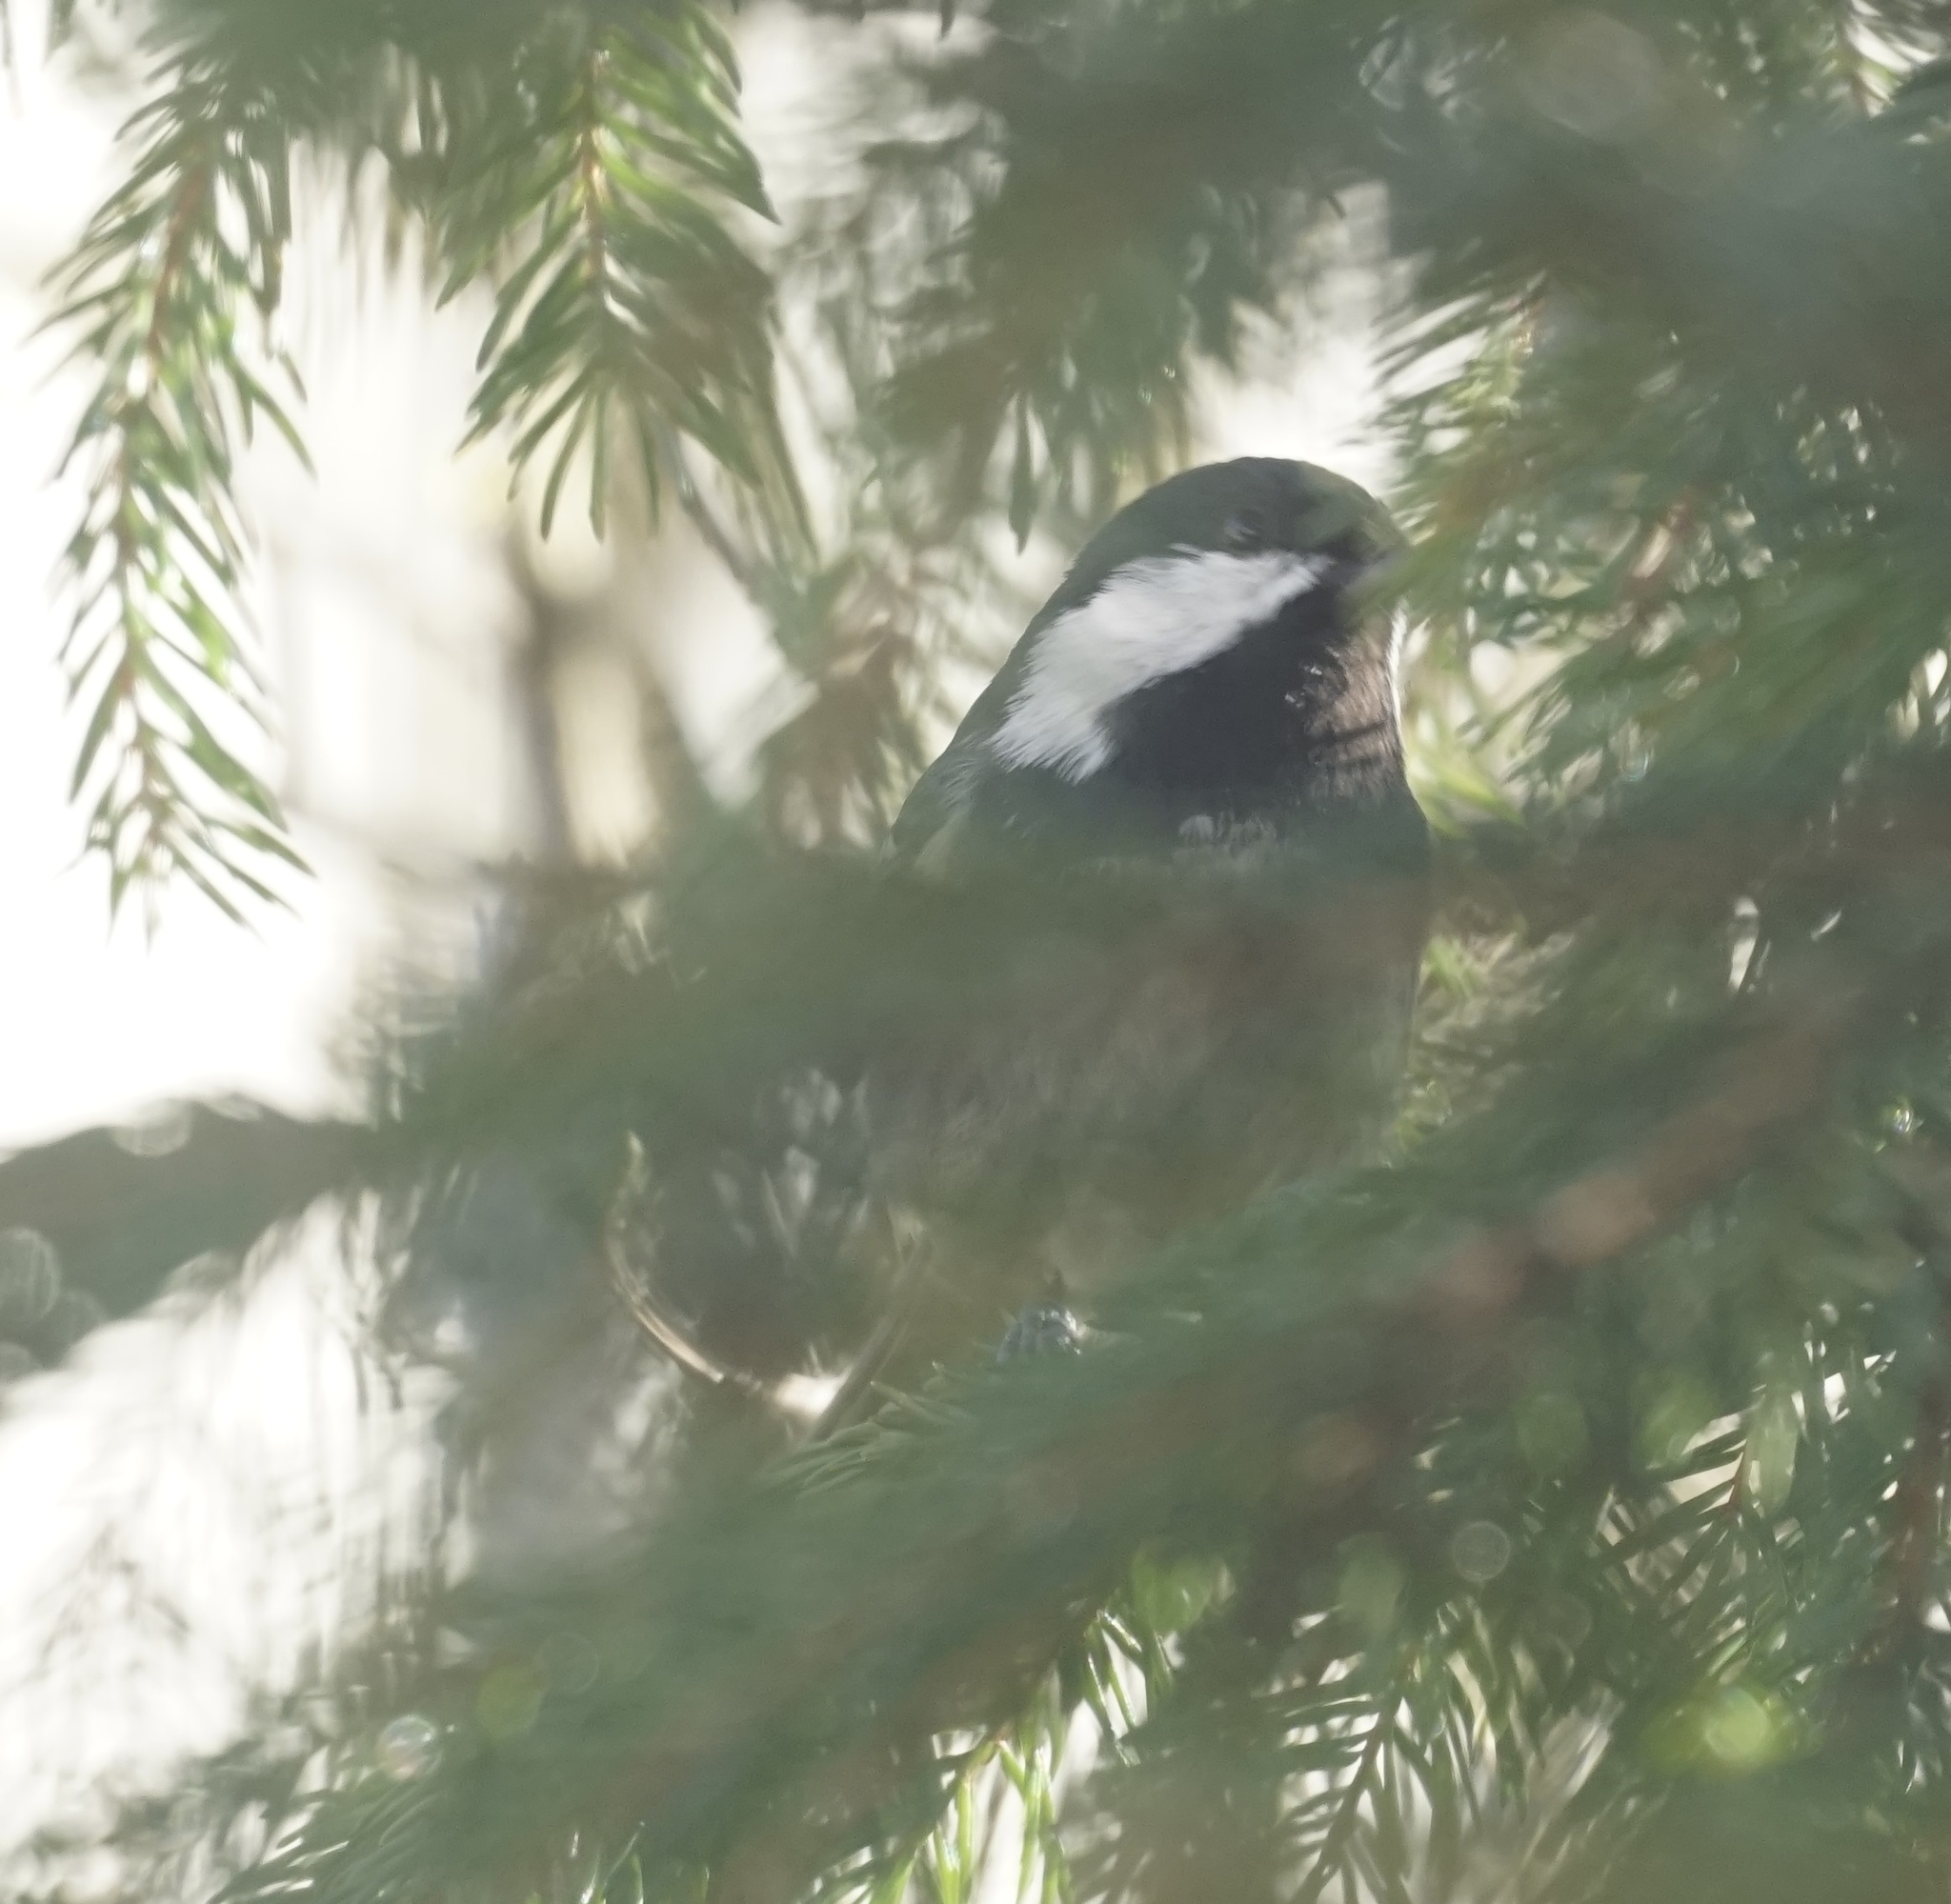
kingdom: Animalia
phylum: Chordata
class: Aves
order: Passeriformes
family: Paridae
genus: Periparus
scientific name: Periparus ater
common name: Coal tit
